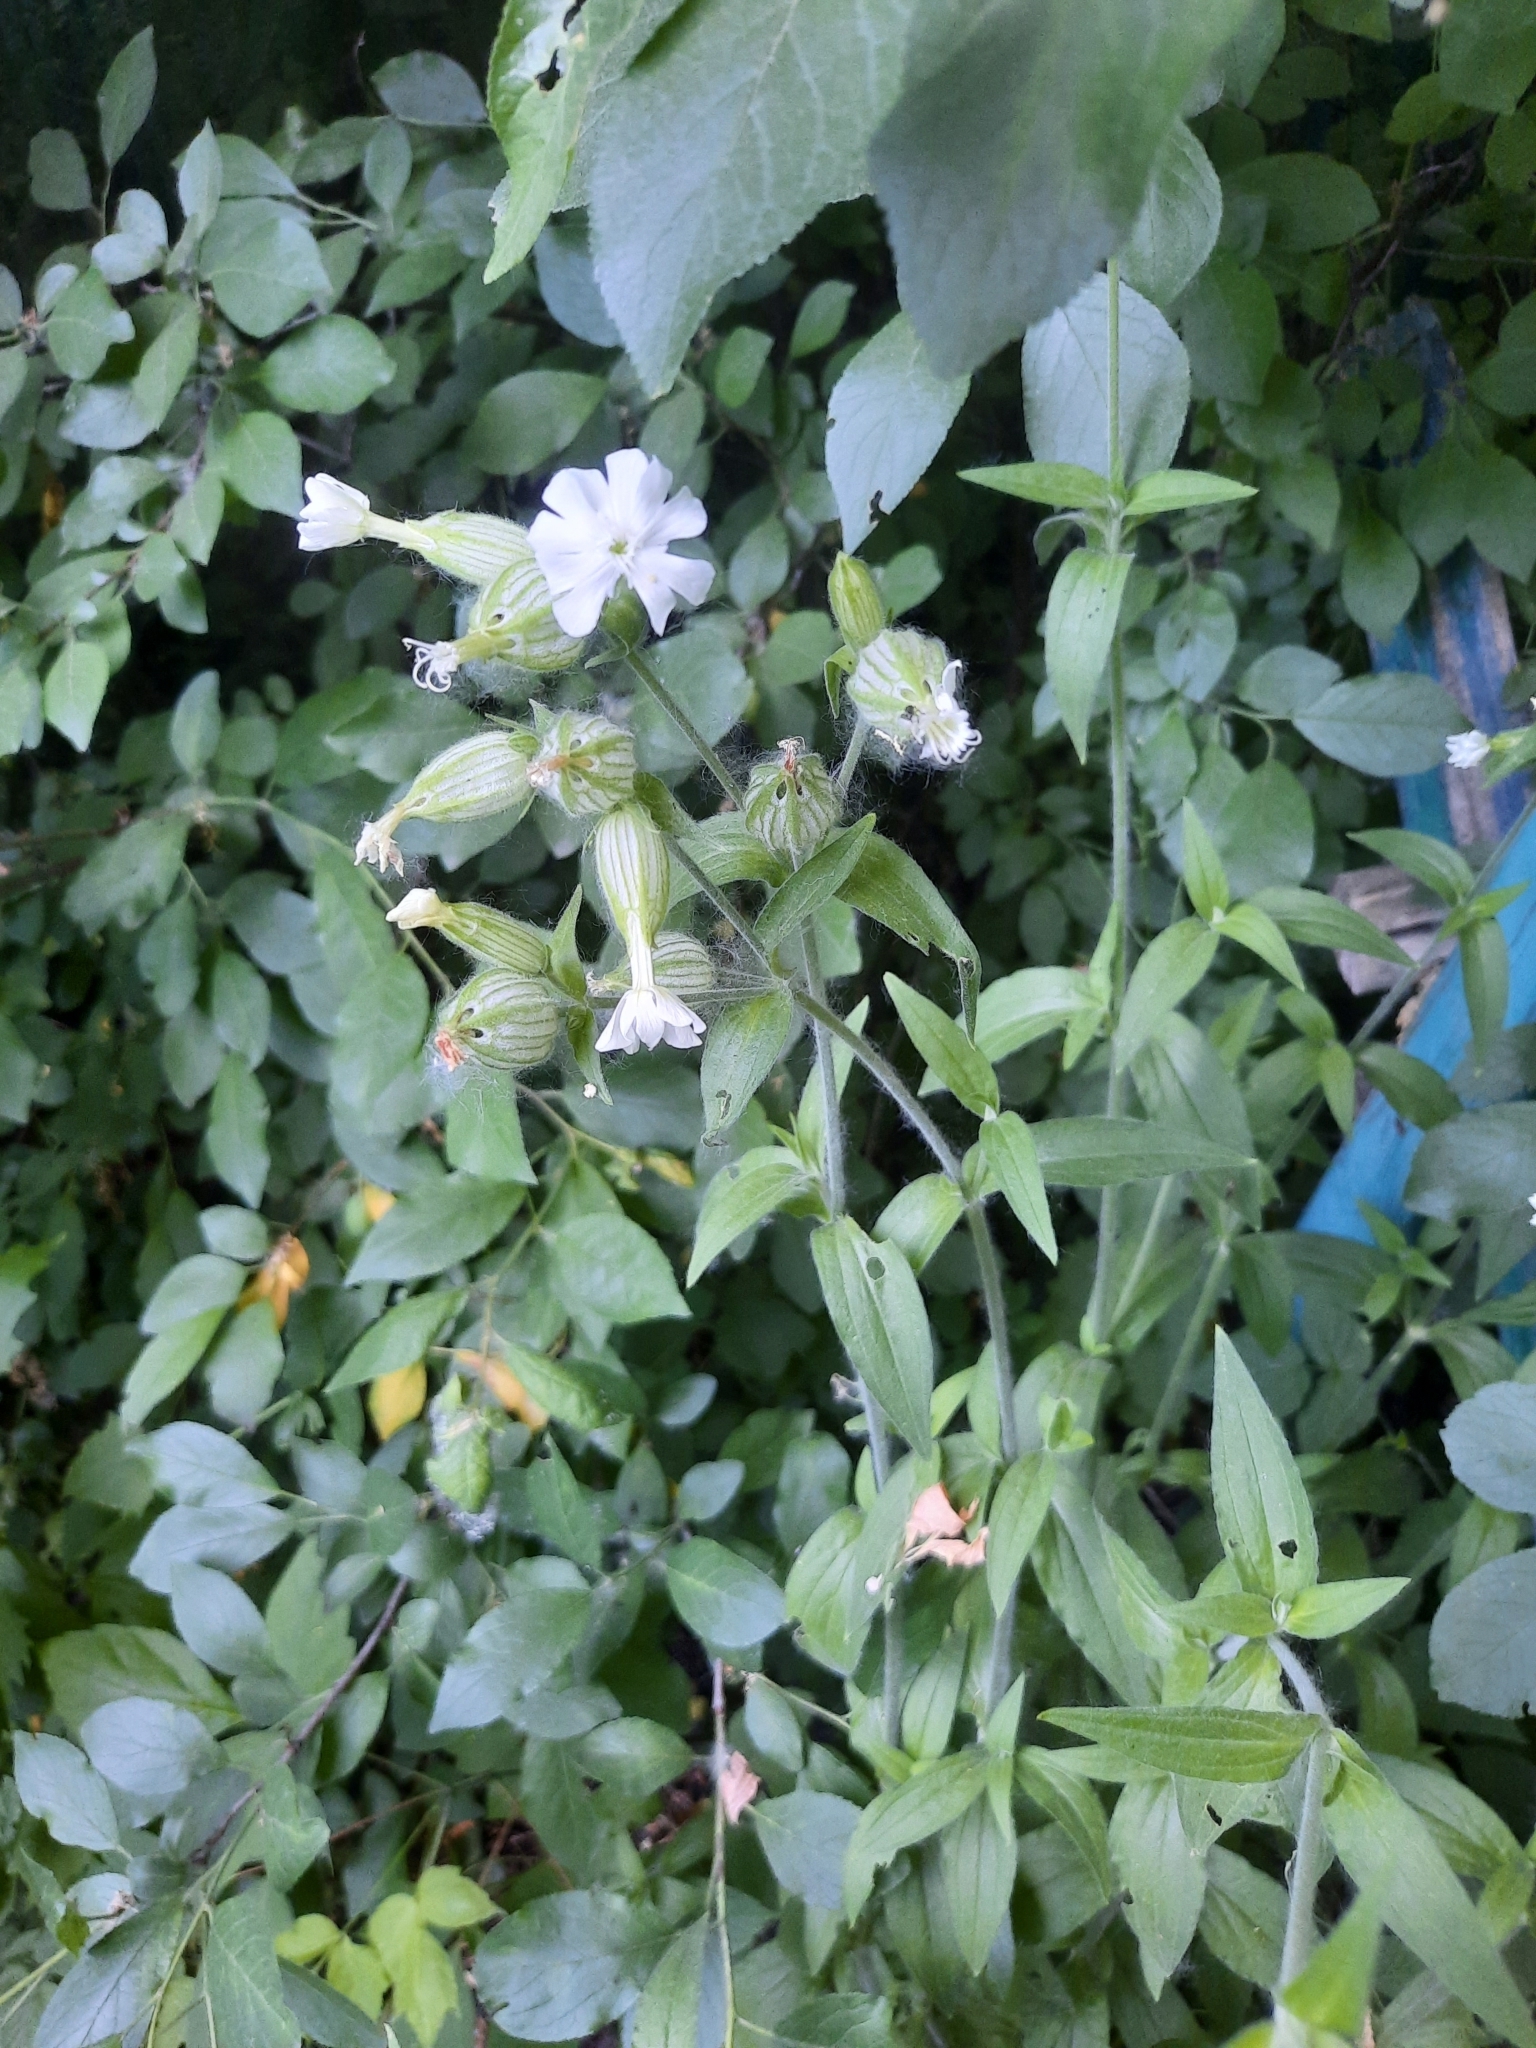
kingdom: Plantae
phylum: Tracheophyta
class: Magnoliopsida
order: Caryophyllales
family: Caryophyllaceae
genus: Silene
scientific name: Silene latifolia
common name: White campion
